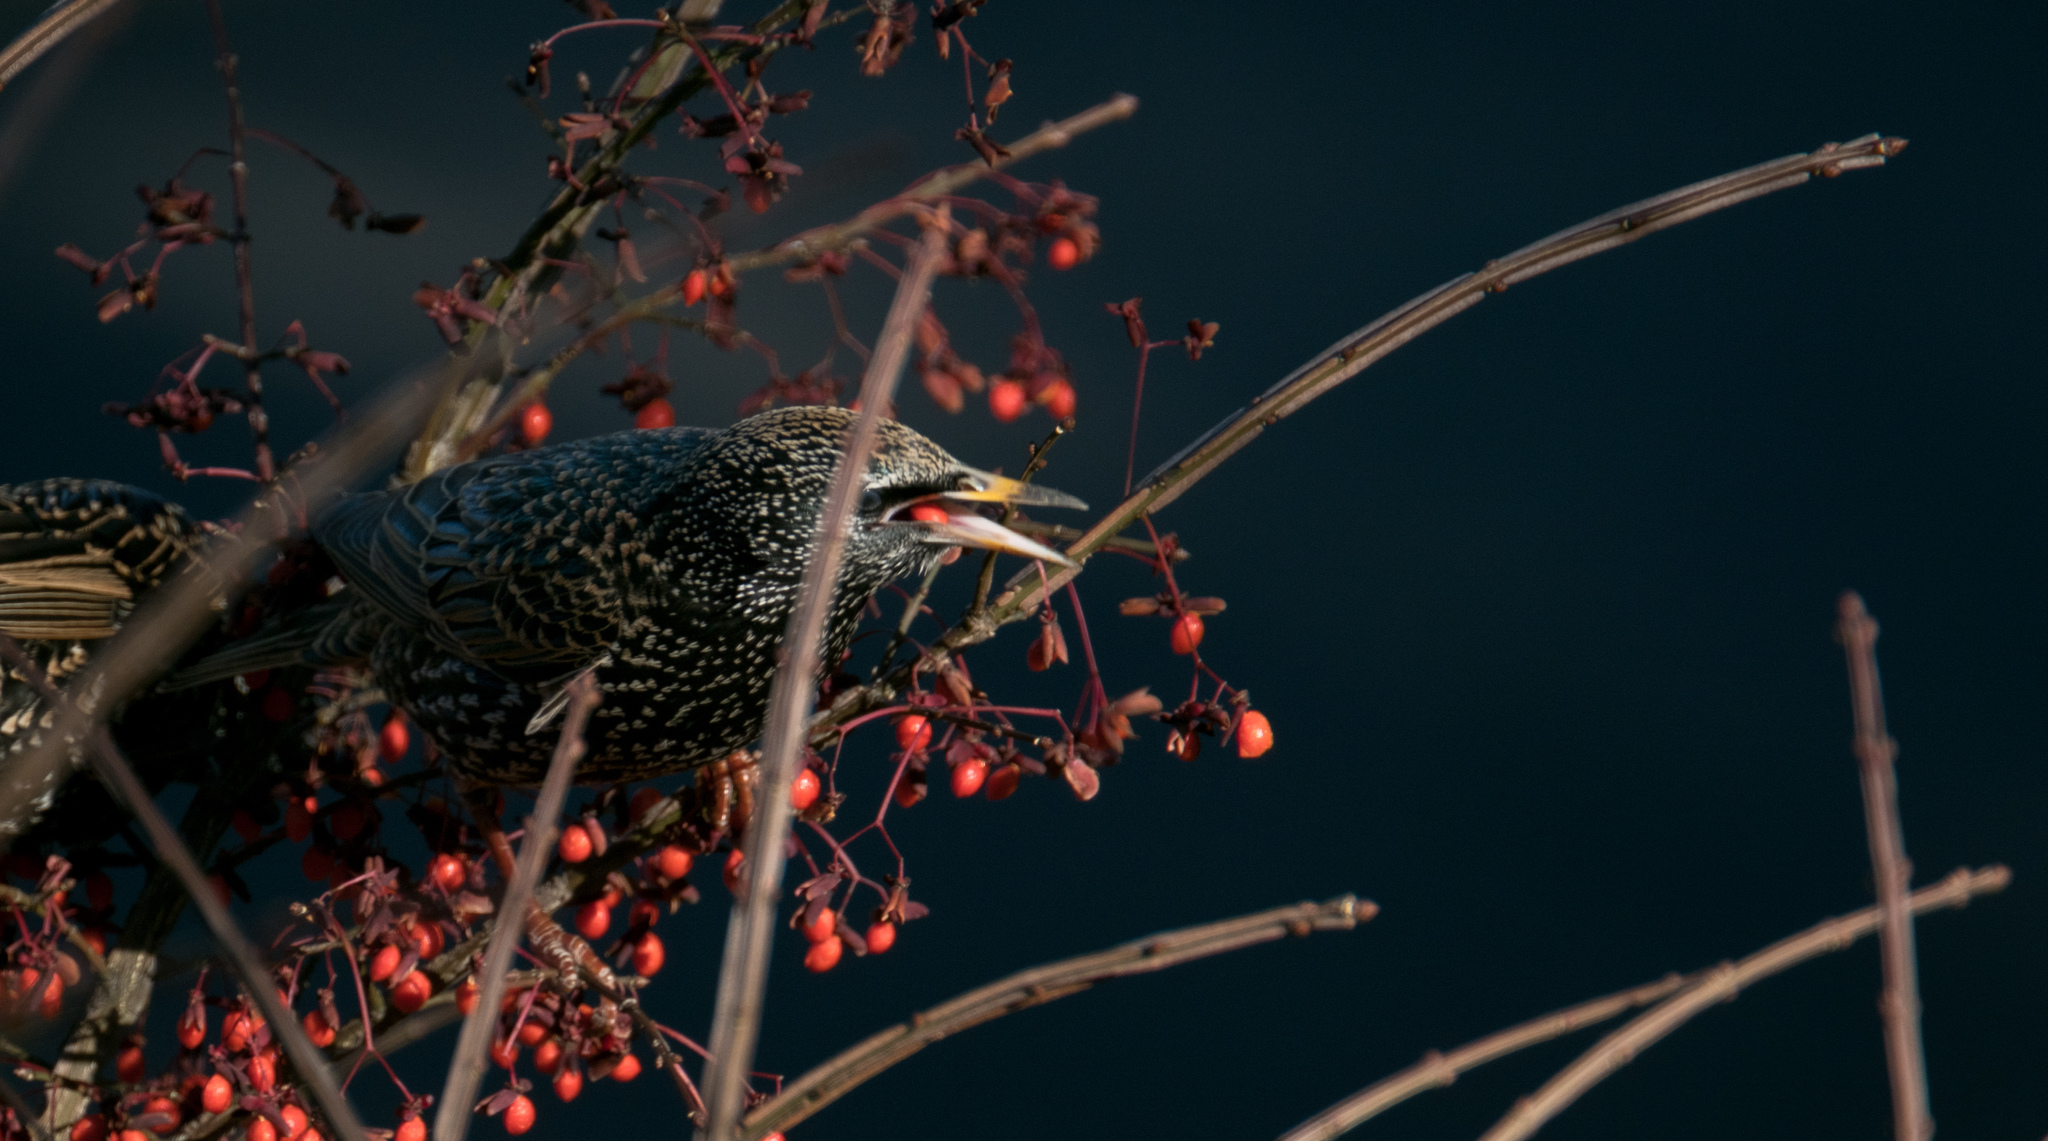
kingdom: Animalia
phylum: Chordata
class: Aves
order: Passeriformes
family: Sturnidae
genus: Sturnus
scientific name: Sturnus vulgaris
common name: Common starling
